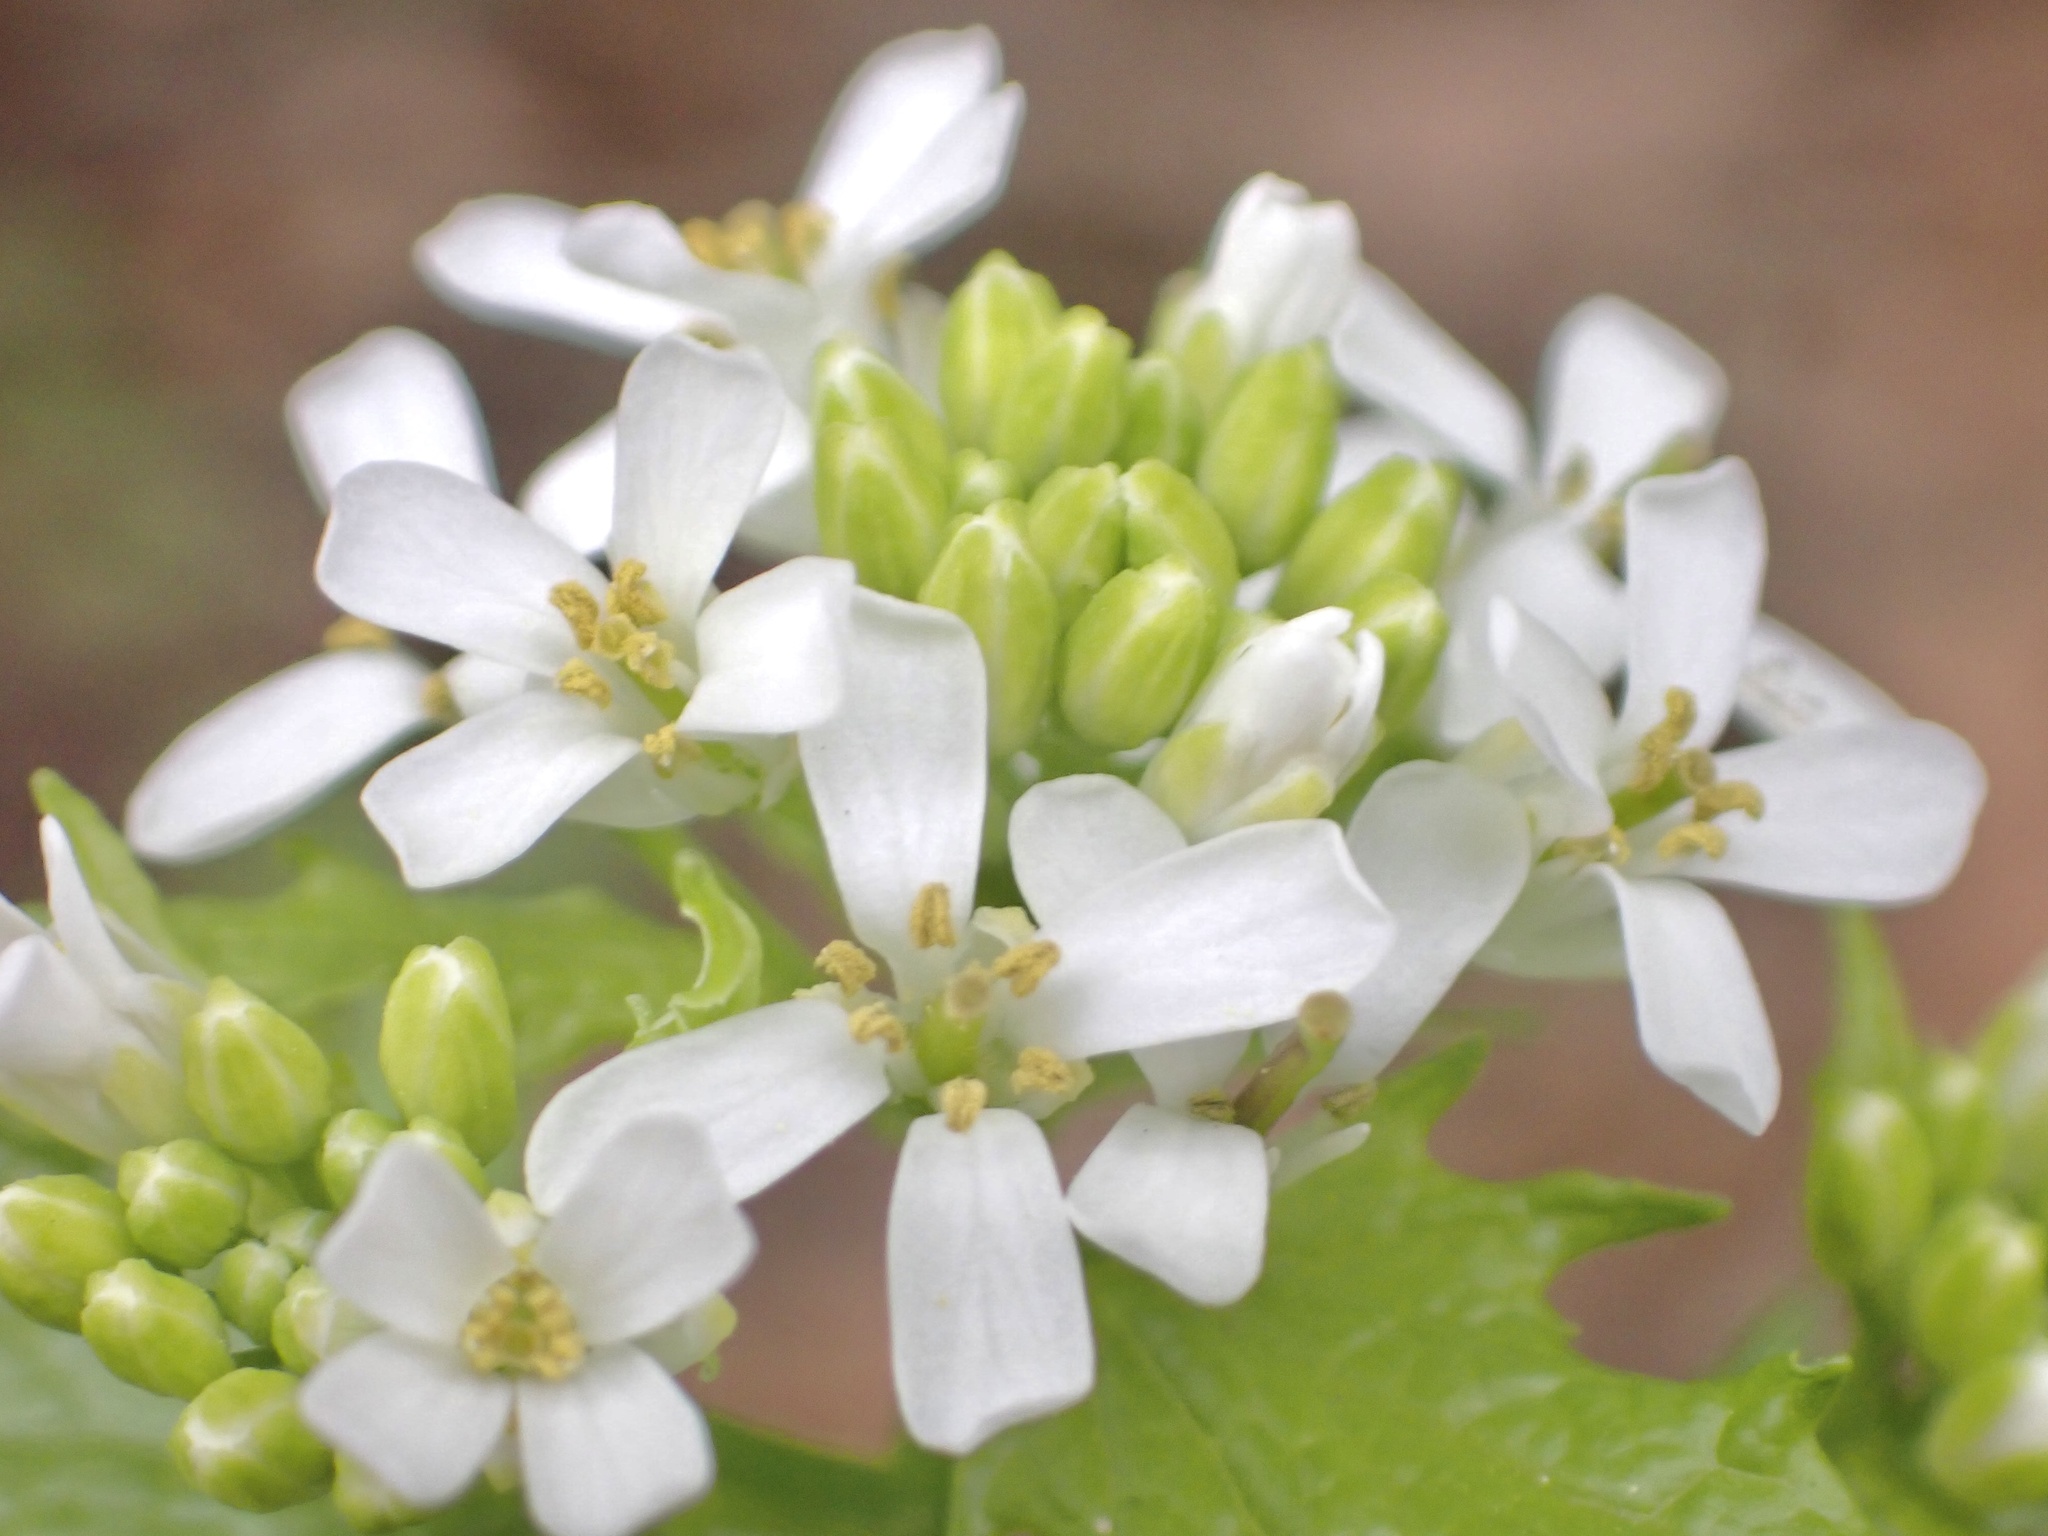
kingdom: Plantae
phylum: Tracheophyta
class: Magnoliopsida
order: Brassicales
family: Brassicaceae
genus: Alliaria
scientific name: Alliaria petiolata
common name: Garlic mustard
